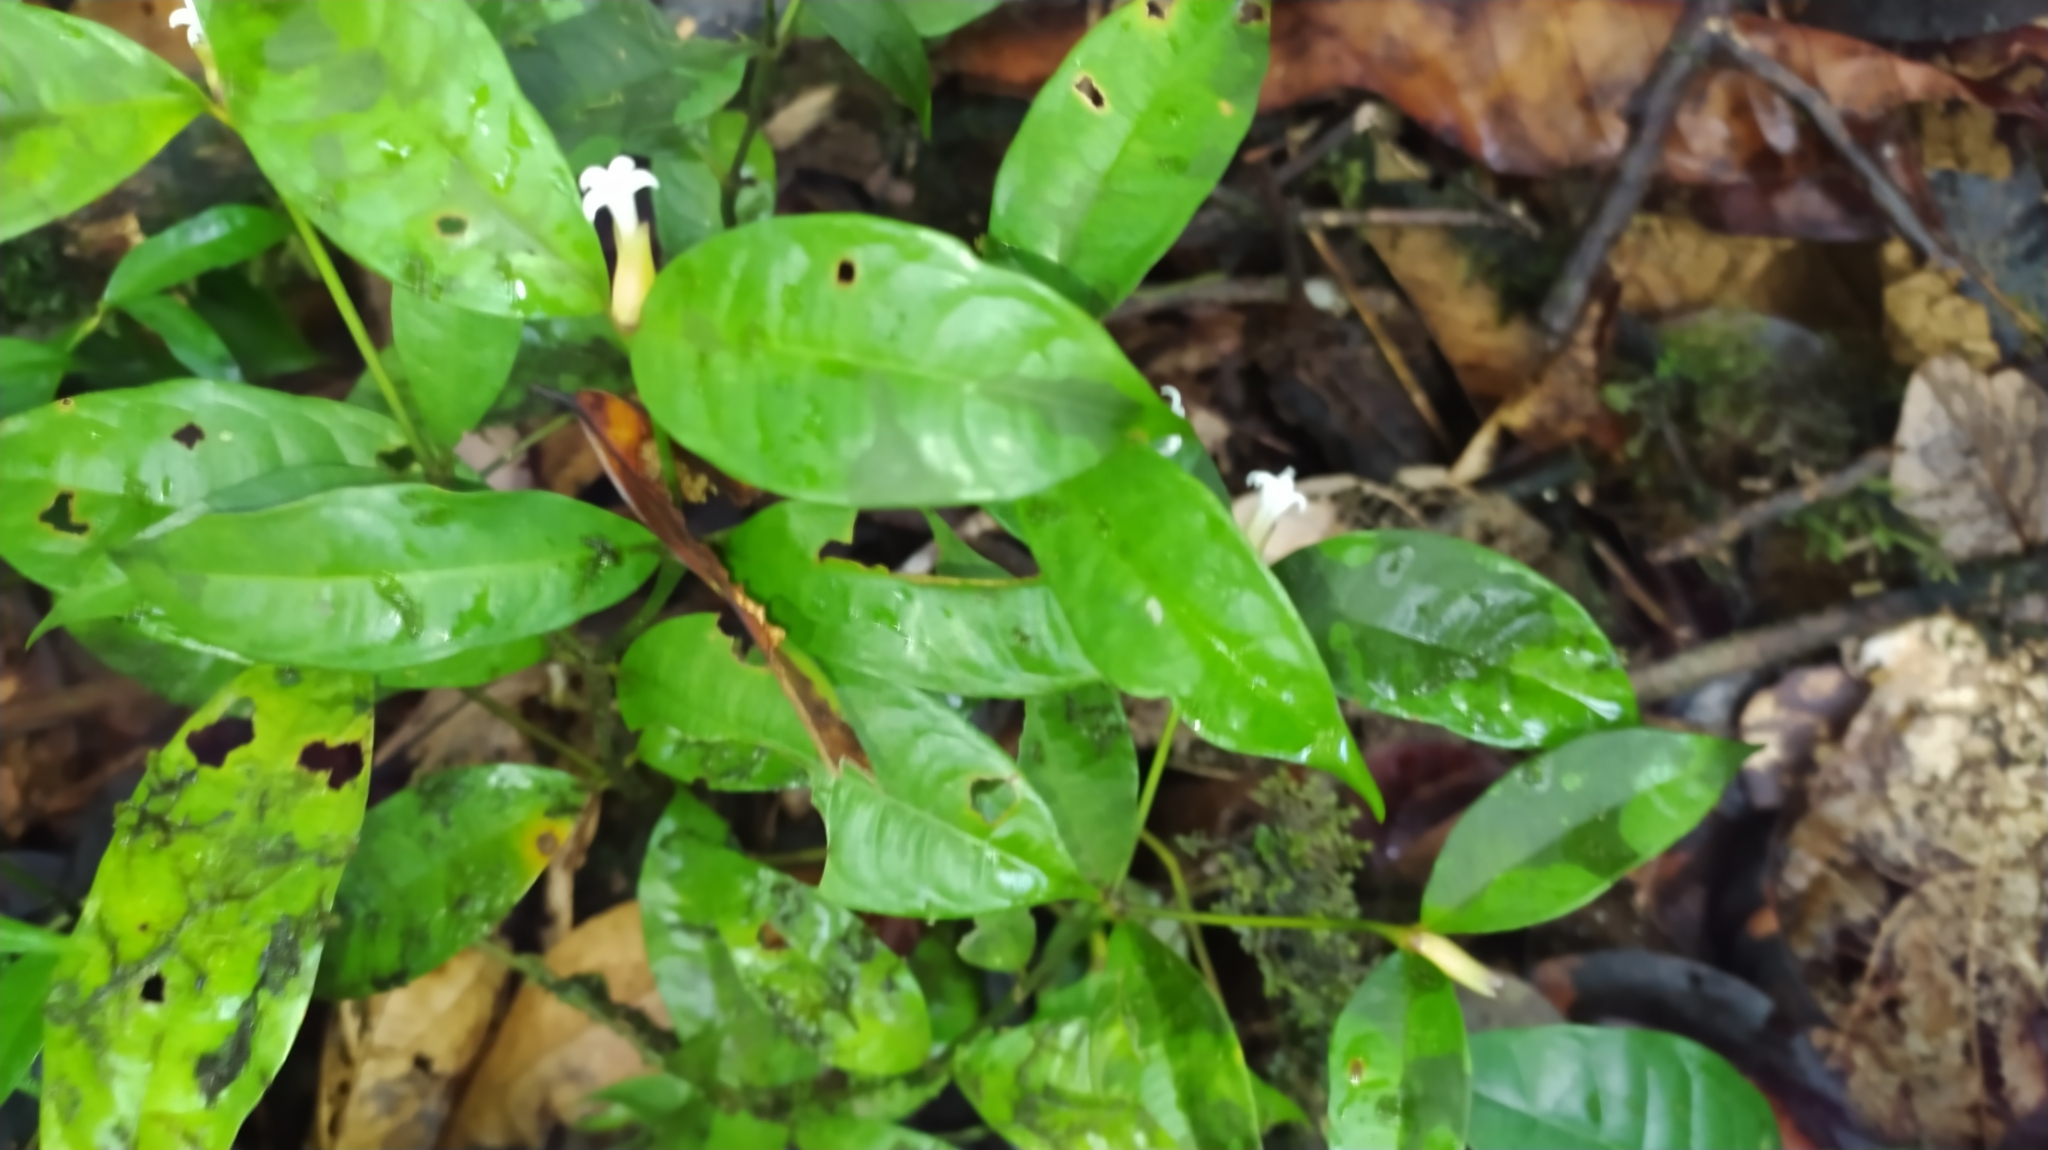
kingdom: Plantae
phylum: Tracheophyta
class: Magnoliopsida
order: Gentianales
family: Rubiaceae
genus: Palicourea
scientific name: Palicourea oblonga
